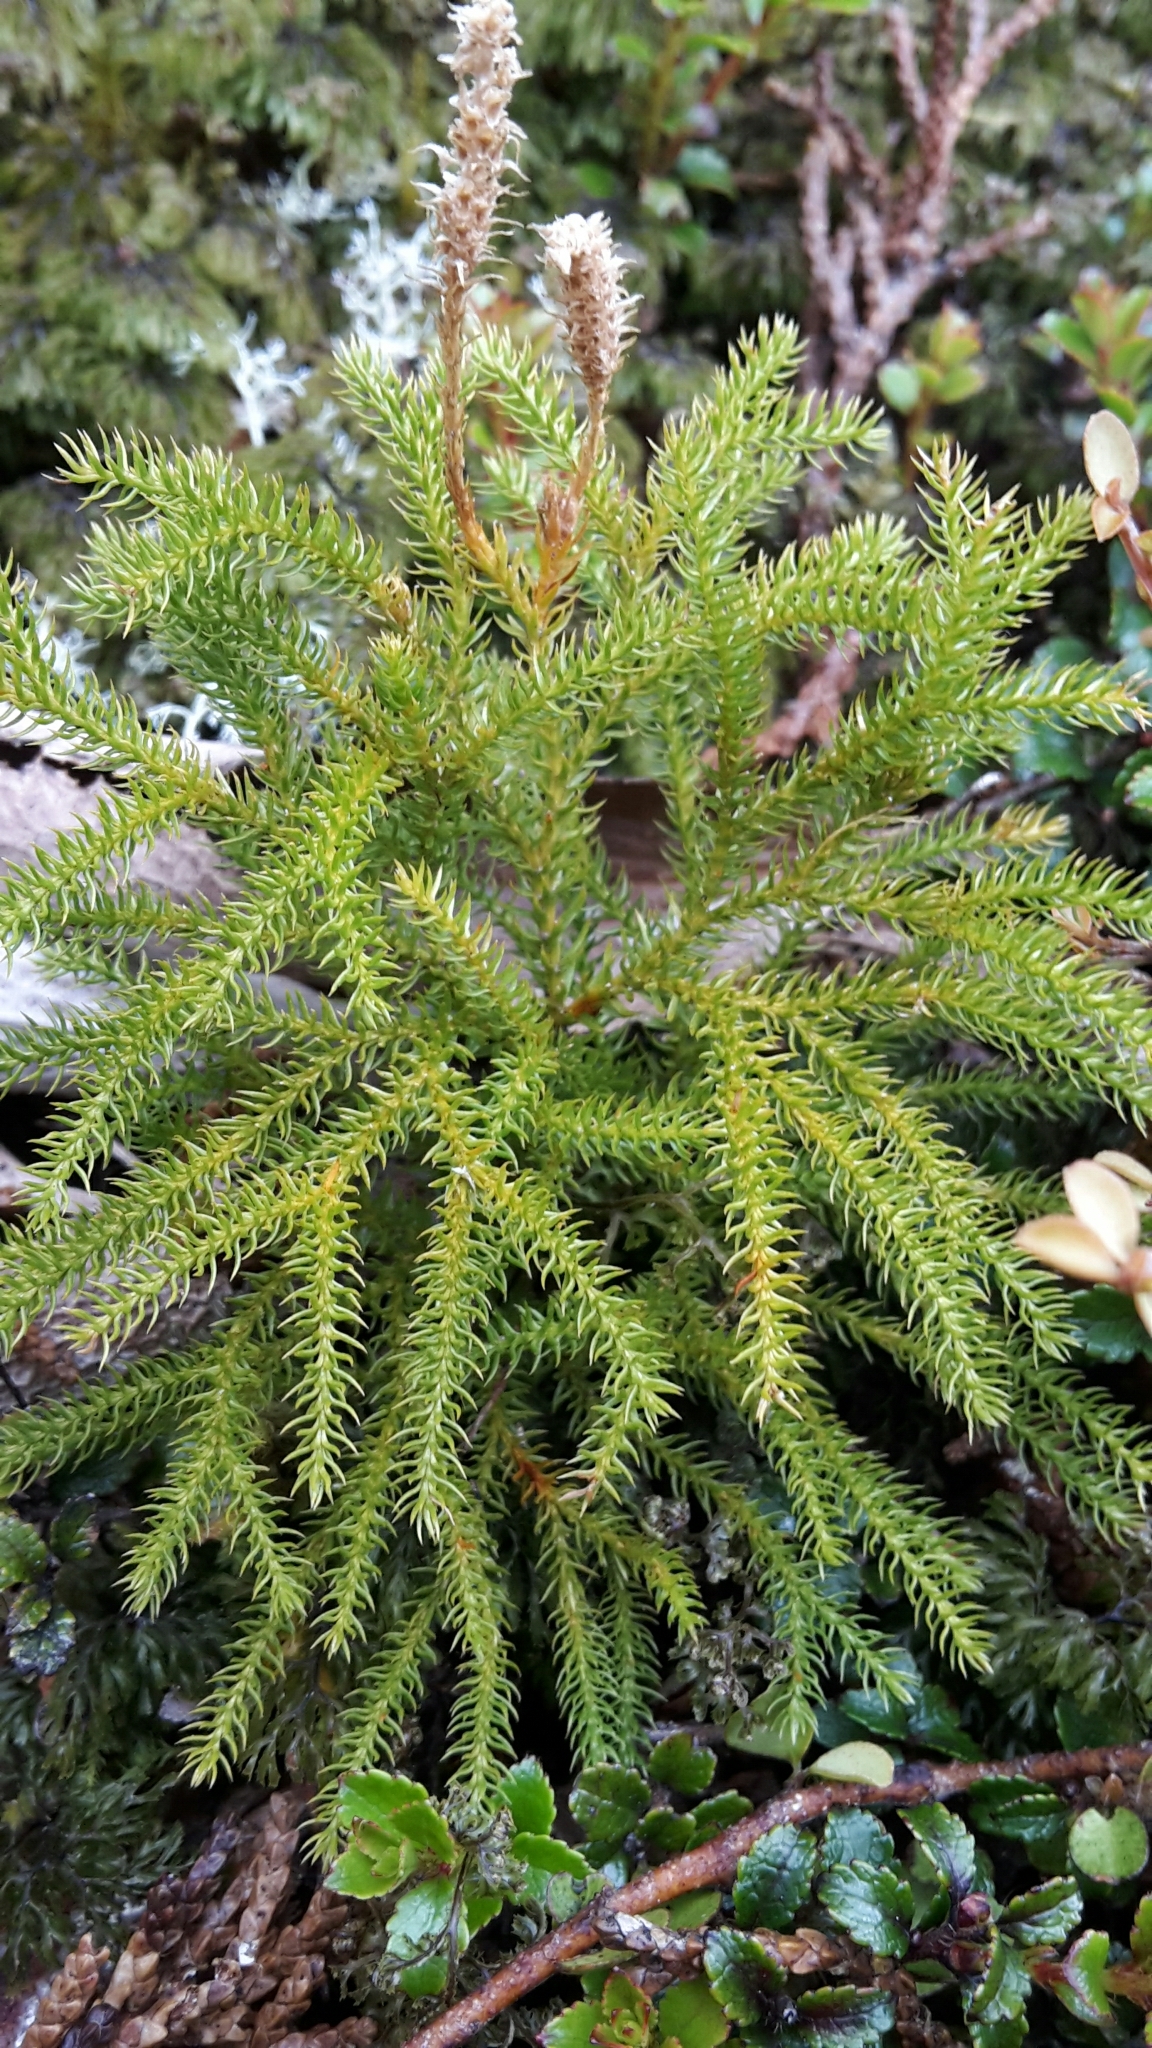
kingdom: Plantae
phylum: Tracheophyta
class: Lycopodiopsida
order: Lycopodiales
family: Lycopodiaceae
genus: Austrolycopodium
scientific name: Austrolycopodium fastigiatum
